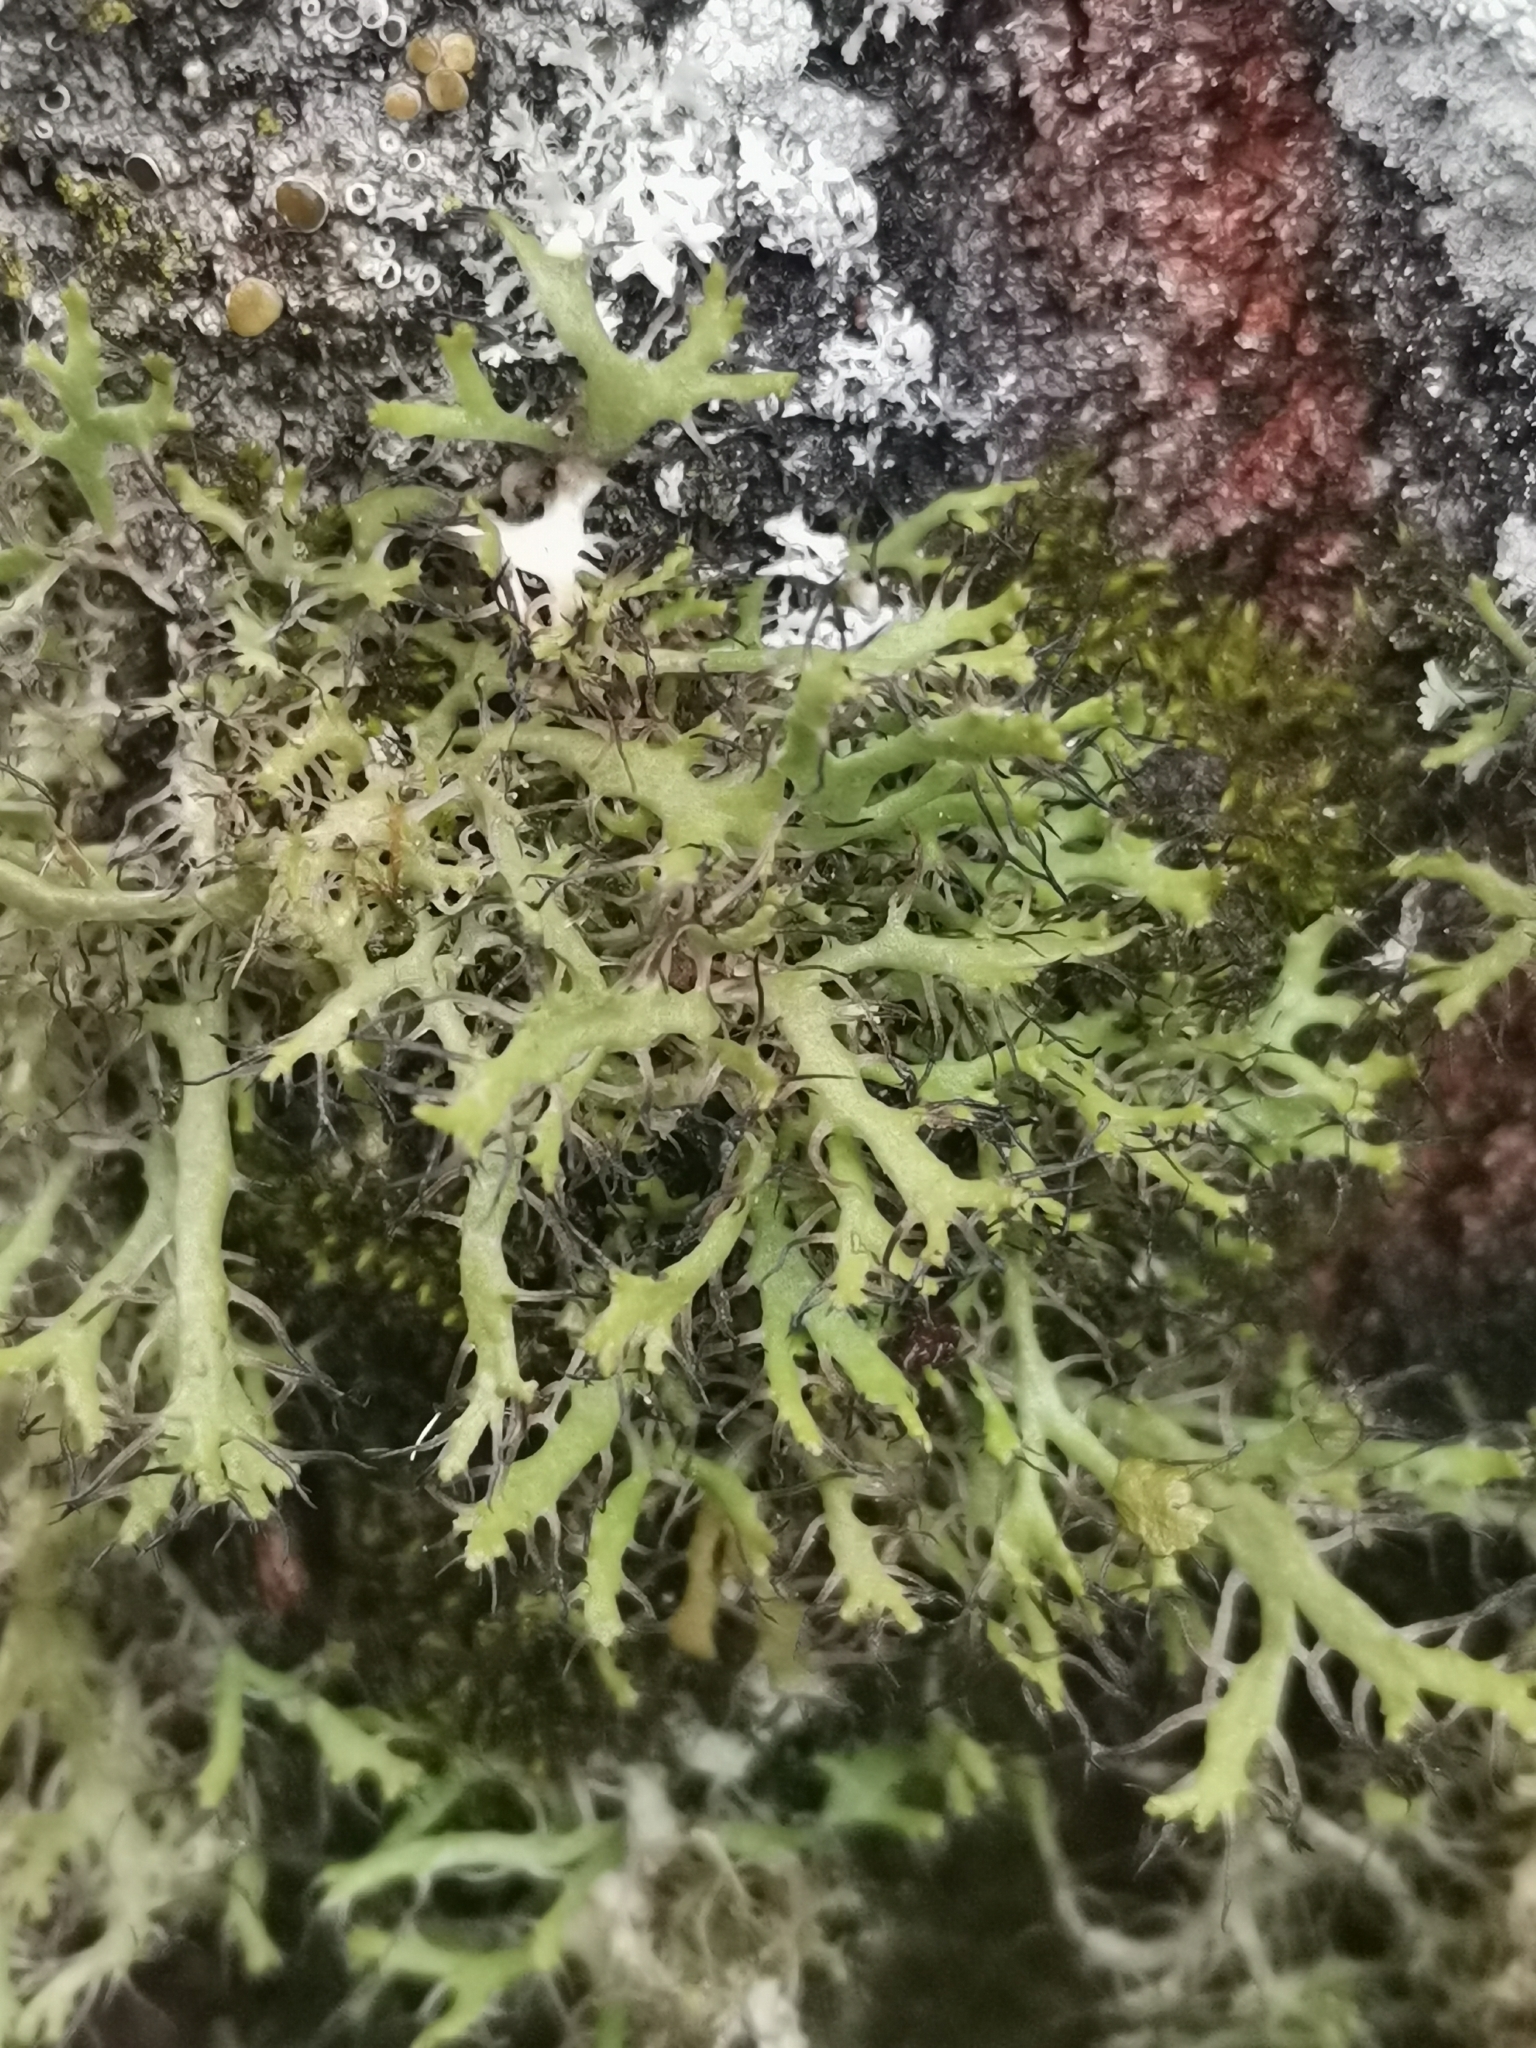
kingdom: Fungi
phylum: Ascomycota
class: Lecanoromycetes
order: Caliciales
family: Physciaceae
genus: Anaptychia
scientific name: Anaptychia ciliaris
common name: Great ciliated lichen
